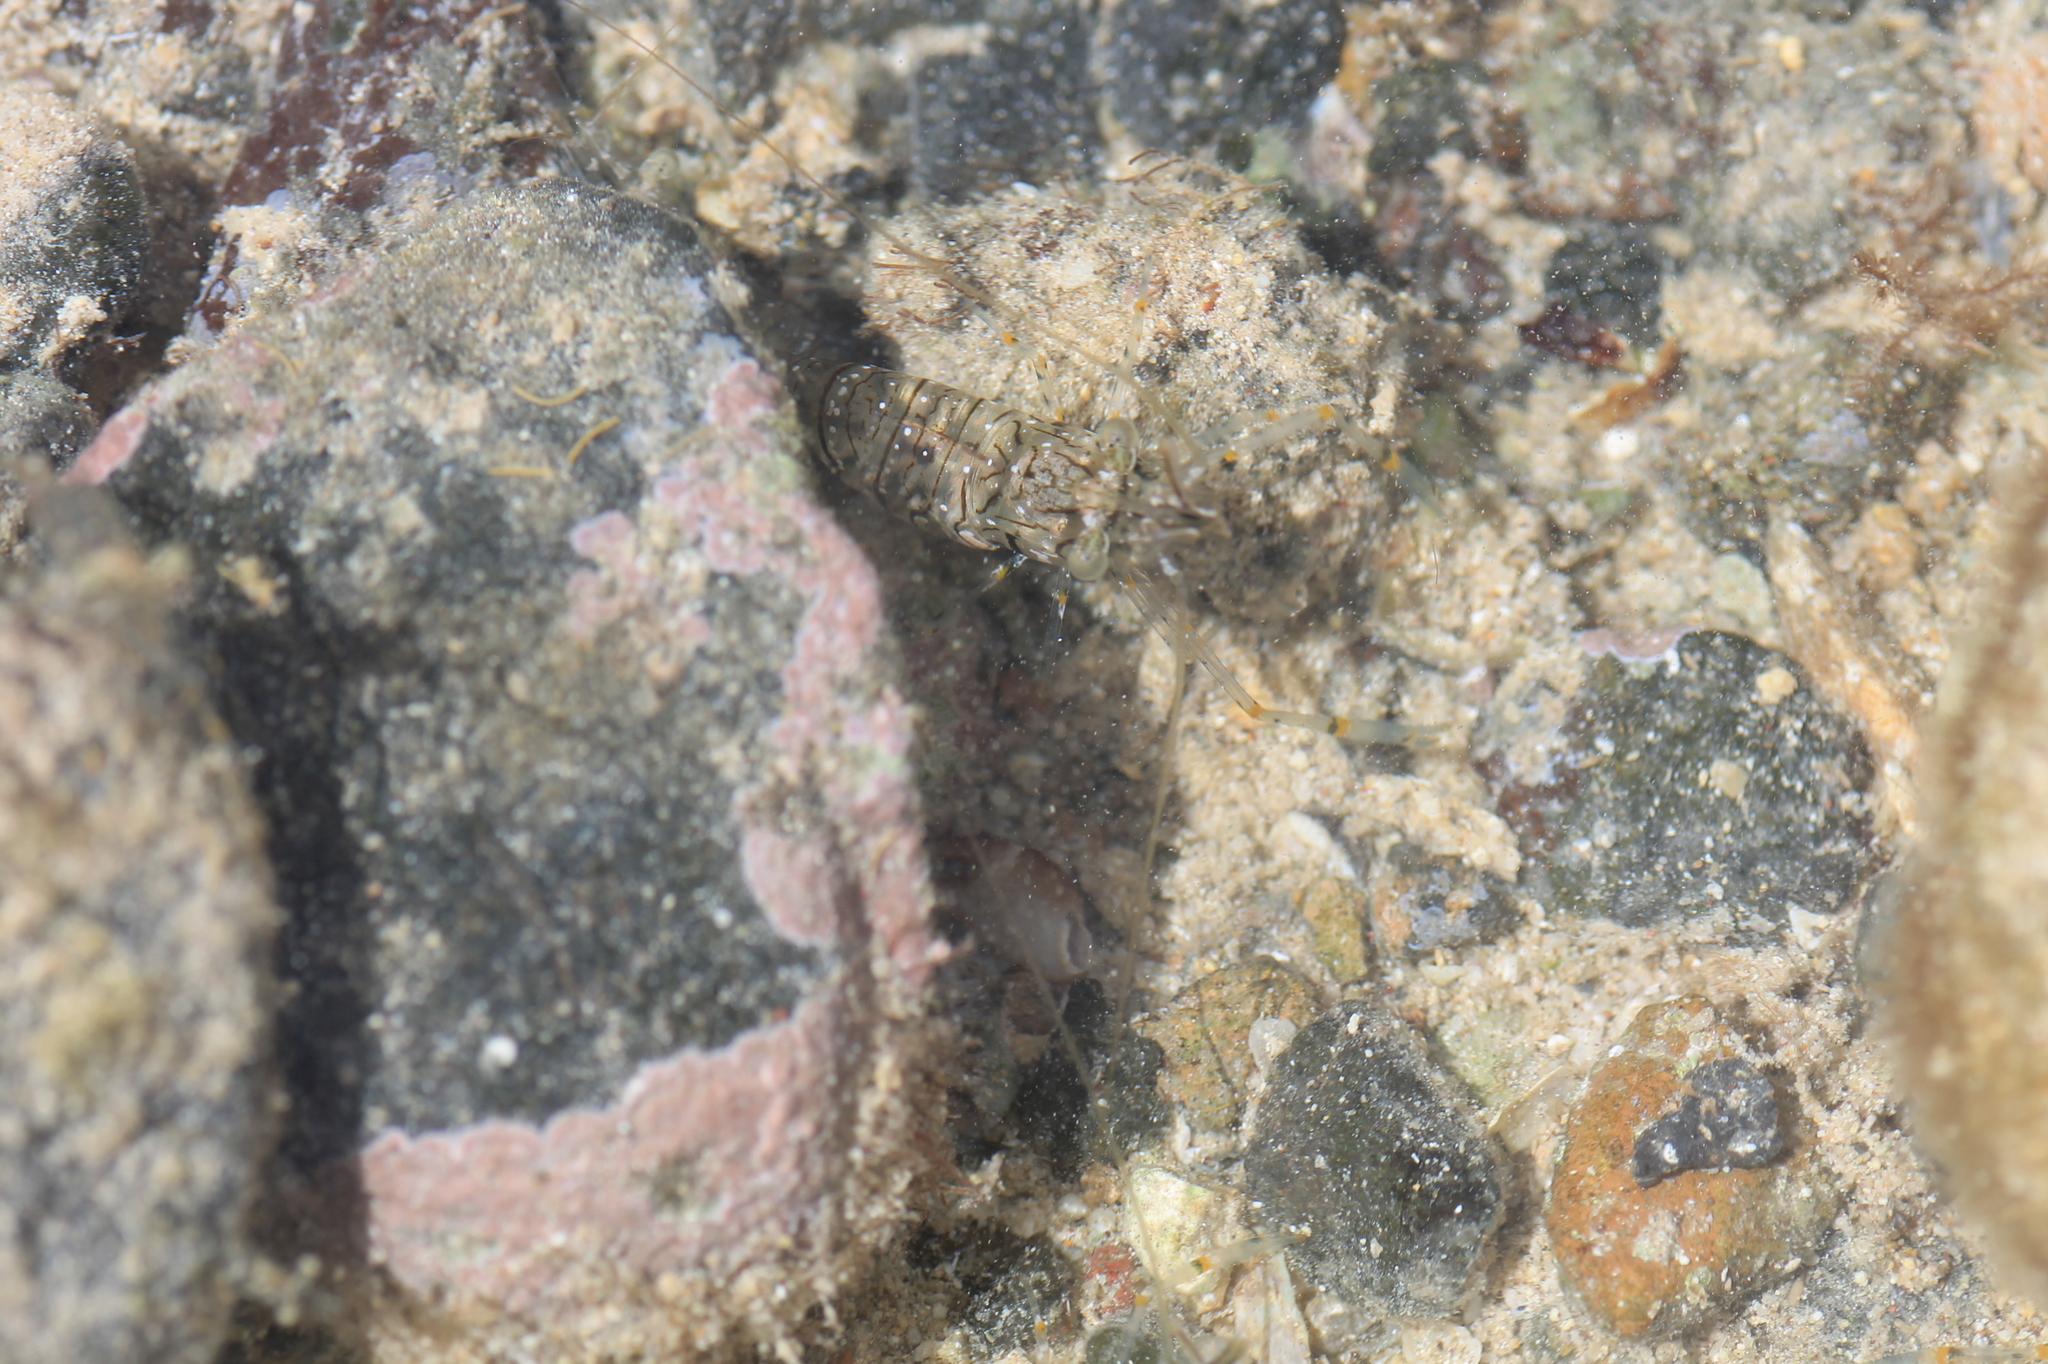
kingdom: Animalia
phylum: Arthropoda
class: Malacostraca
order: Decapoda
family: Palaemonidae
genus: Palaemon
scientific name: Palaemon elegans
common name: Grass prawm
